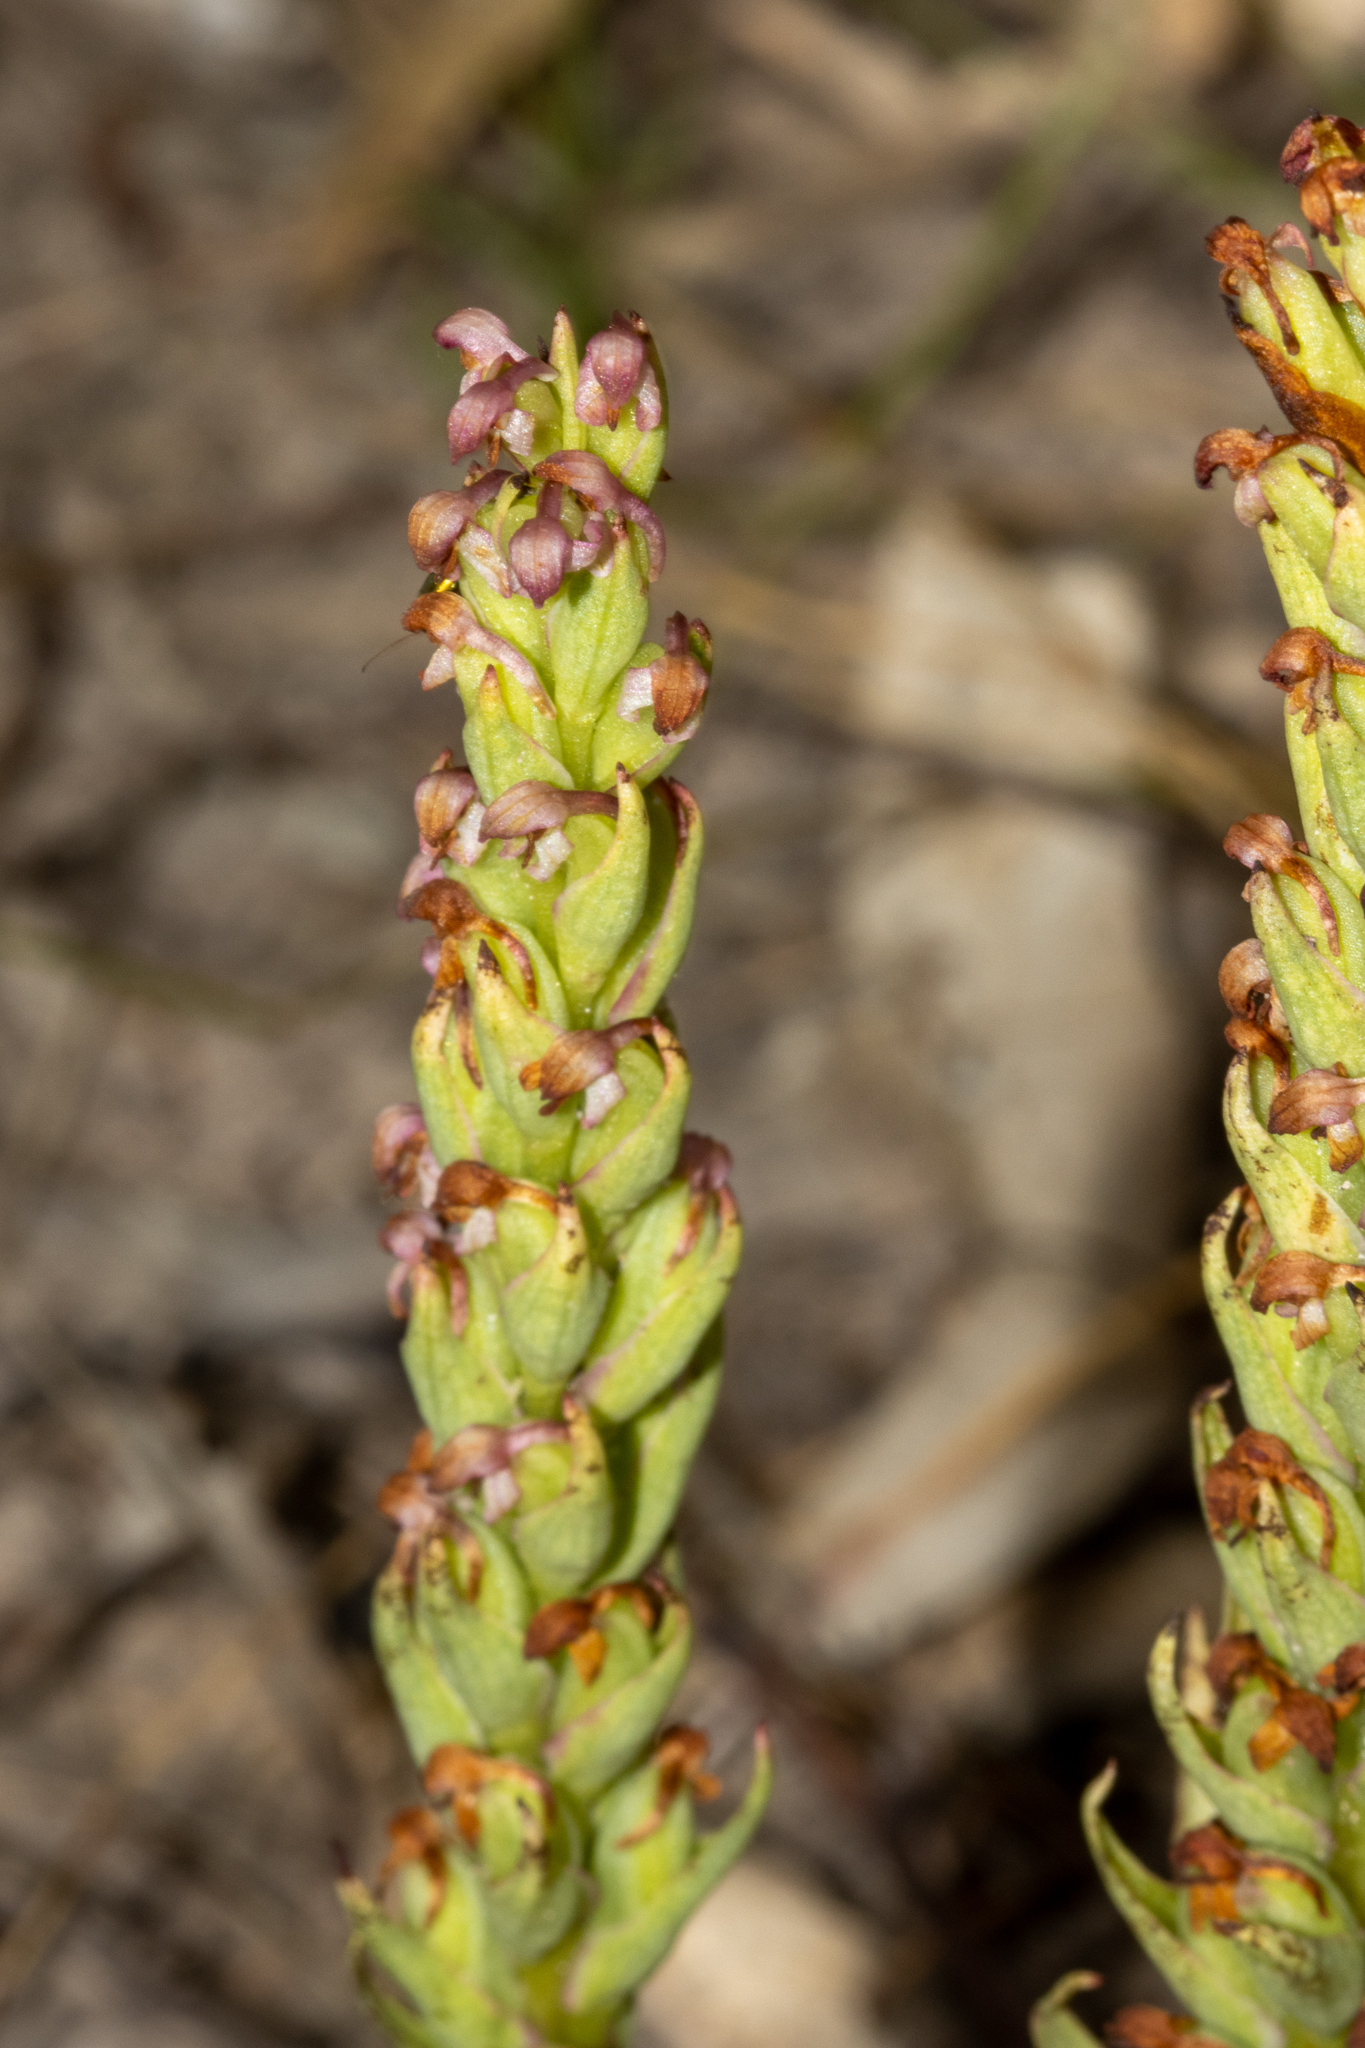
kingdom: Plantae
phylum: Tracheophyta
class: Liliopsida
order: Asparagales
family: Orchidaceae
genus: Disa
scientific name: Disa bracteata
